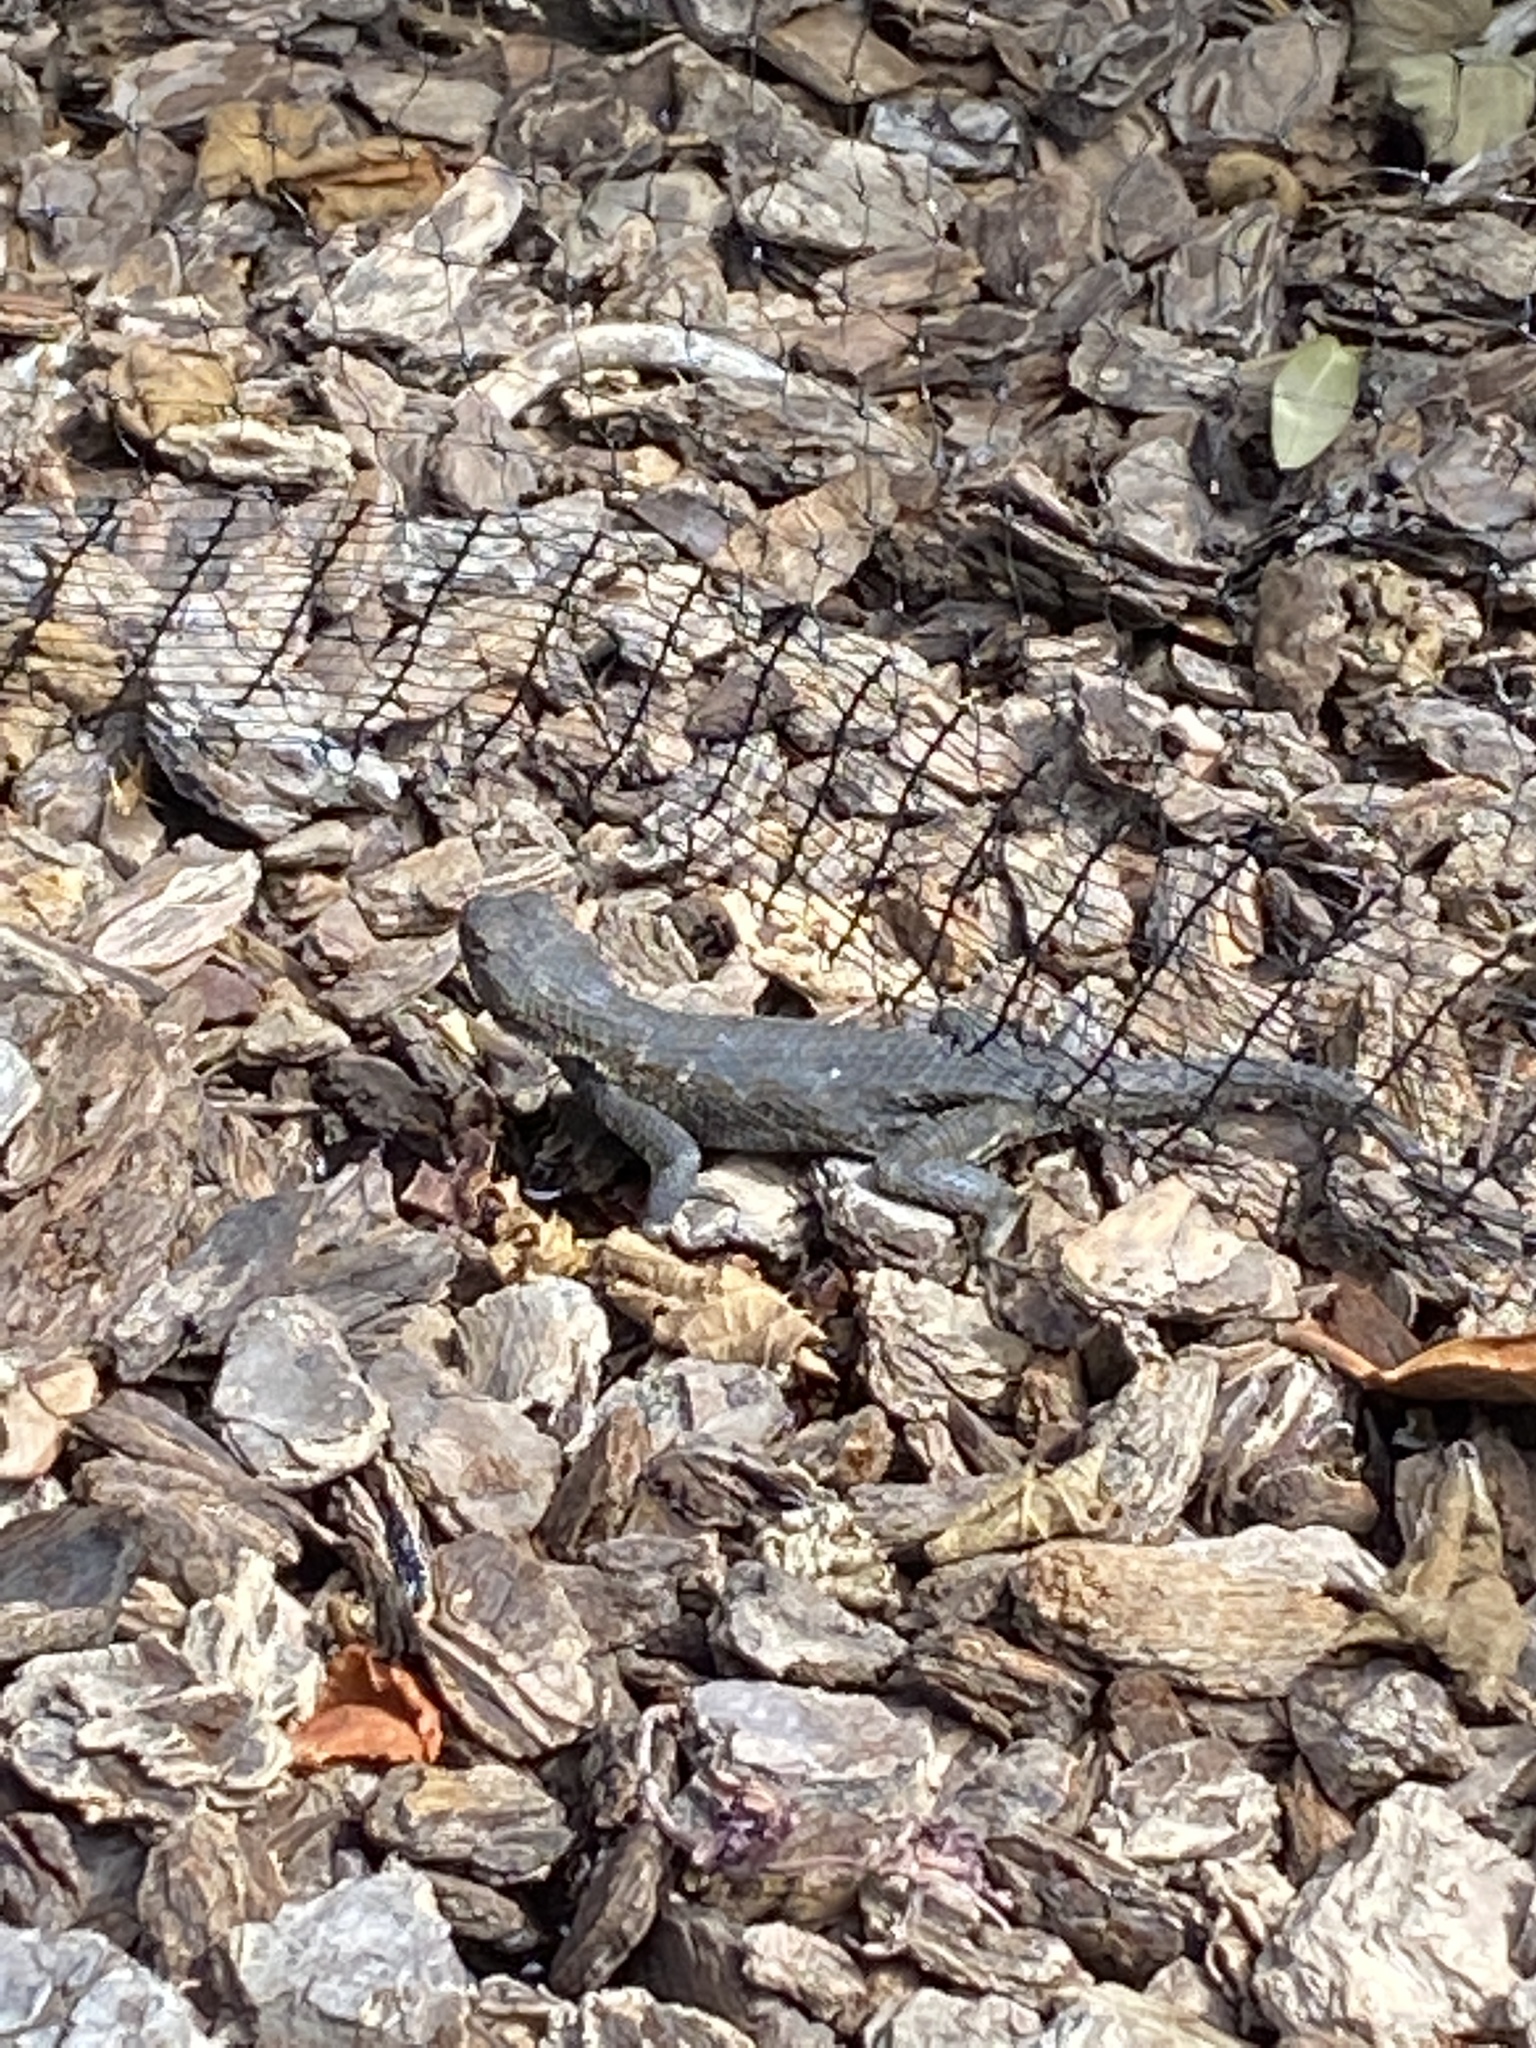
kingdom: Animalia
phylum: Chordata
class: Squamata
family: Phrynosomatidae
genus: Sceloporus
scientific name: Sceloporus occidentalis
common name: Western fence lizard
